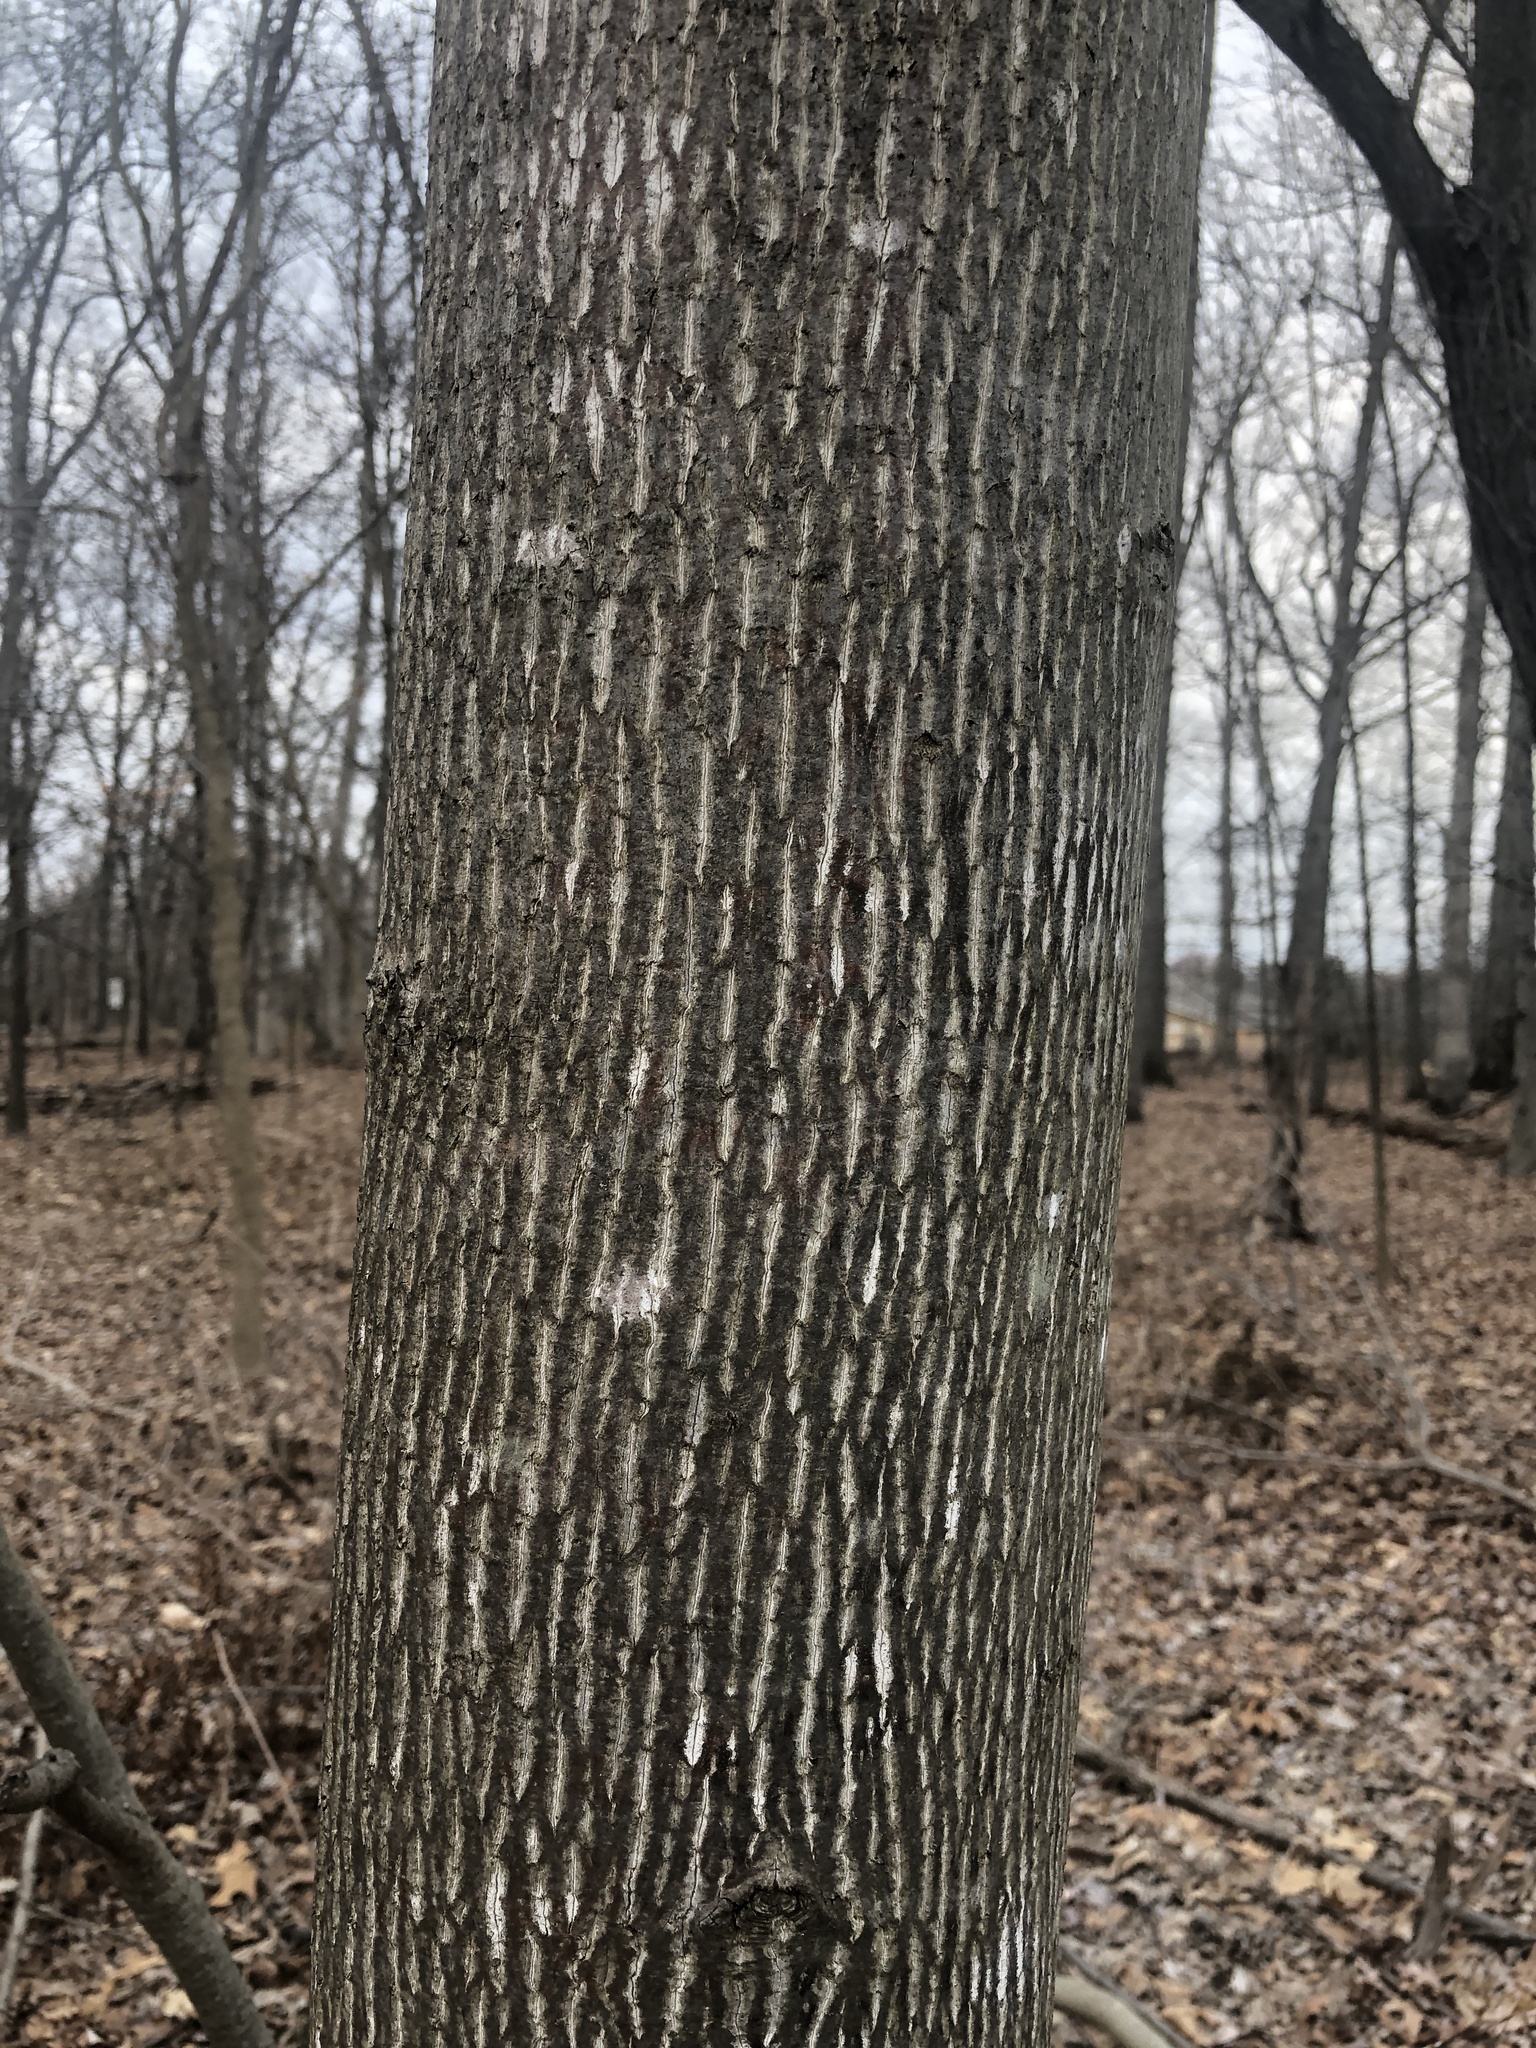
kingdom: Plantae
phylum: Tracheophyta
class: Magnoliopsida
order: Magnoliales
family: Magnoliaceae
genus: Liriodendron
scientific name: Liriodendron tulipifera
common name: Tulip tree
